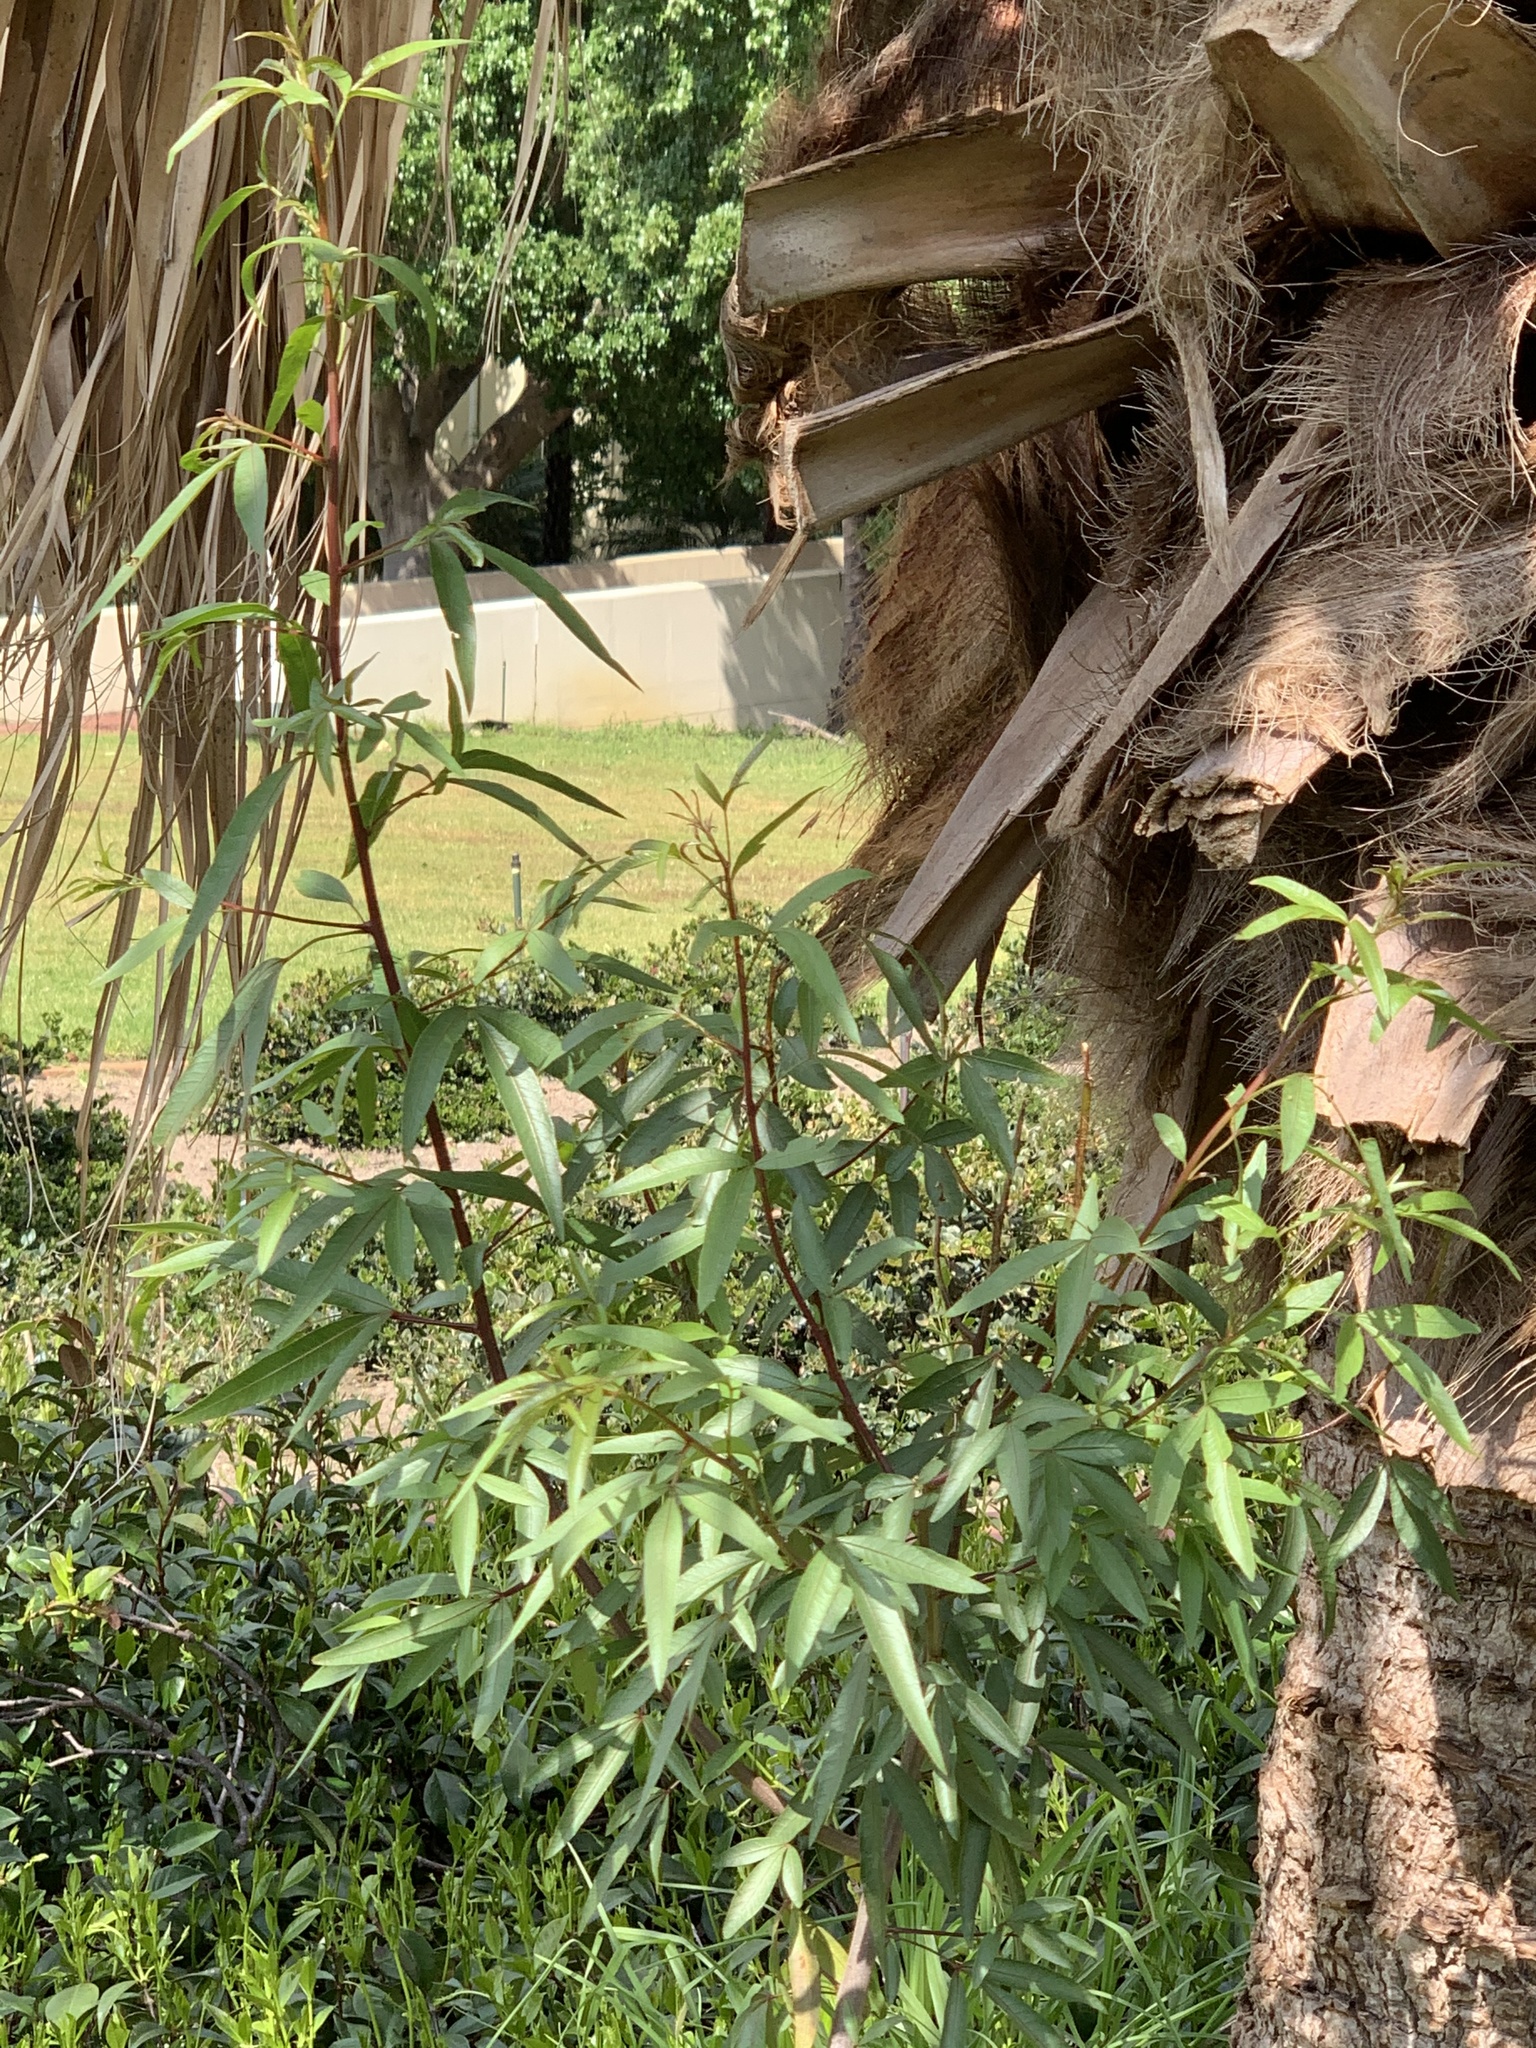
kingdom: Plantae
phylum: Tracheophyta
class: Magnoliopsida
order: Sapindales
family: Anacardiaceae
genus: Searsia
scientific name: Searsia pendulina
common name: White karee
